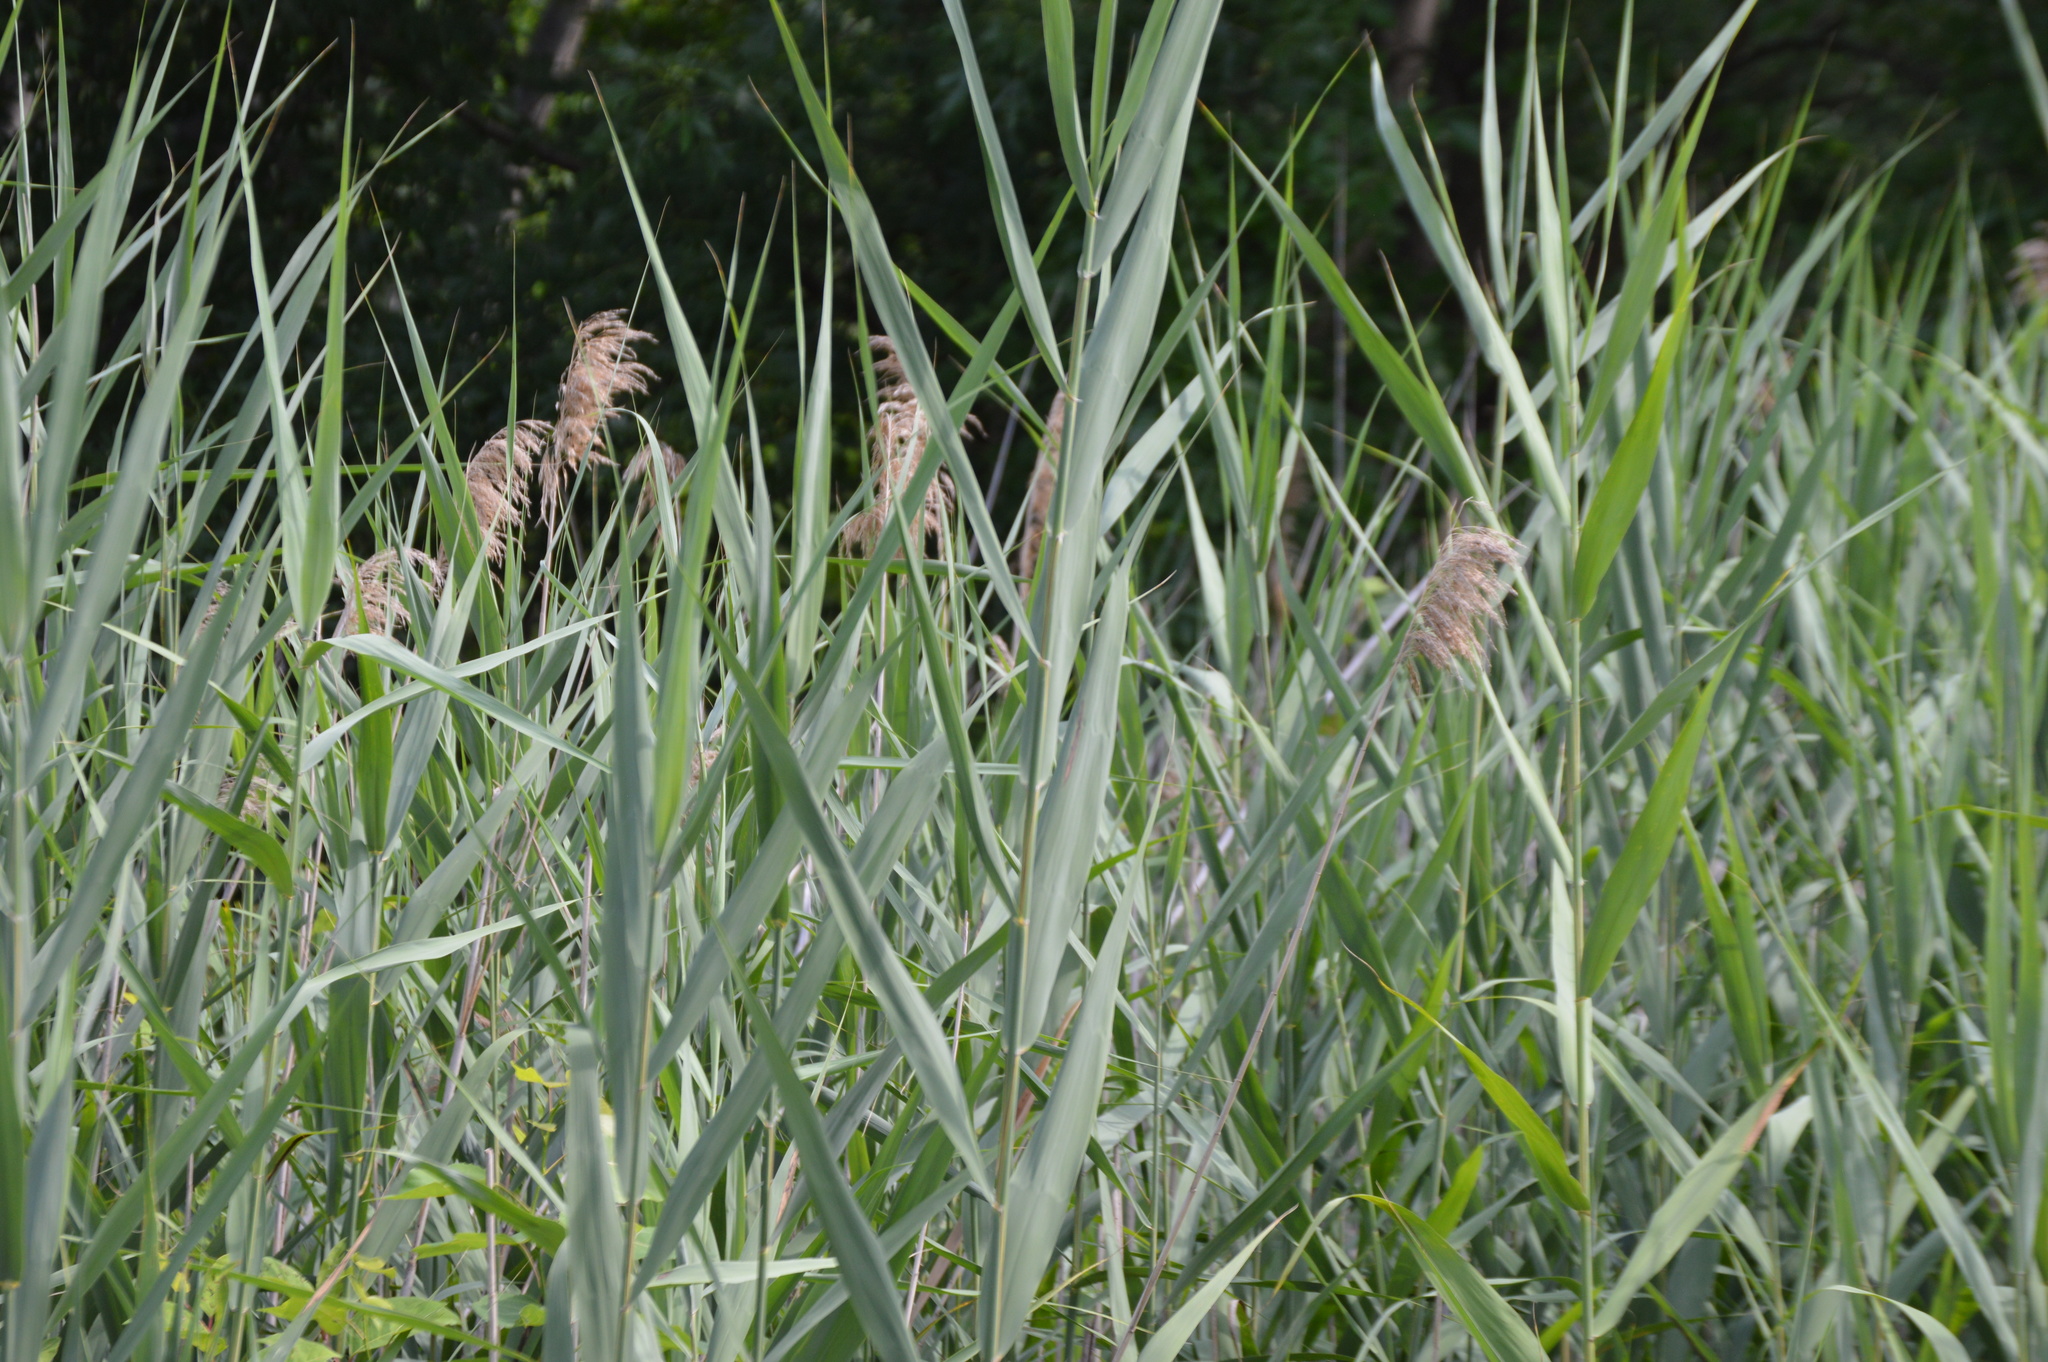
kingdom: Plantae
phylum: Tracheophyta
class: Liliopsida
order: Poales
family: Poaceae
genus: Phragmites
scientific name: Phragmites australis
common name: Common reed
